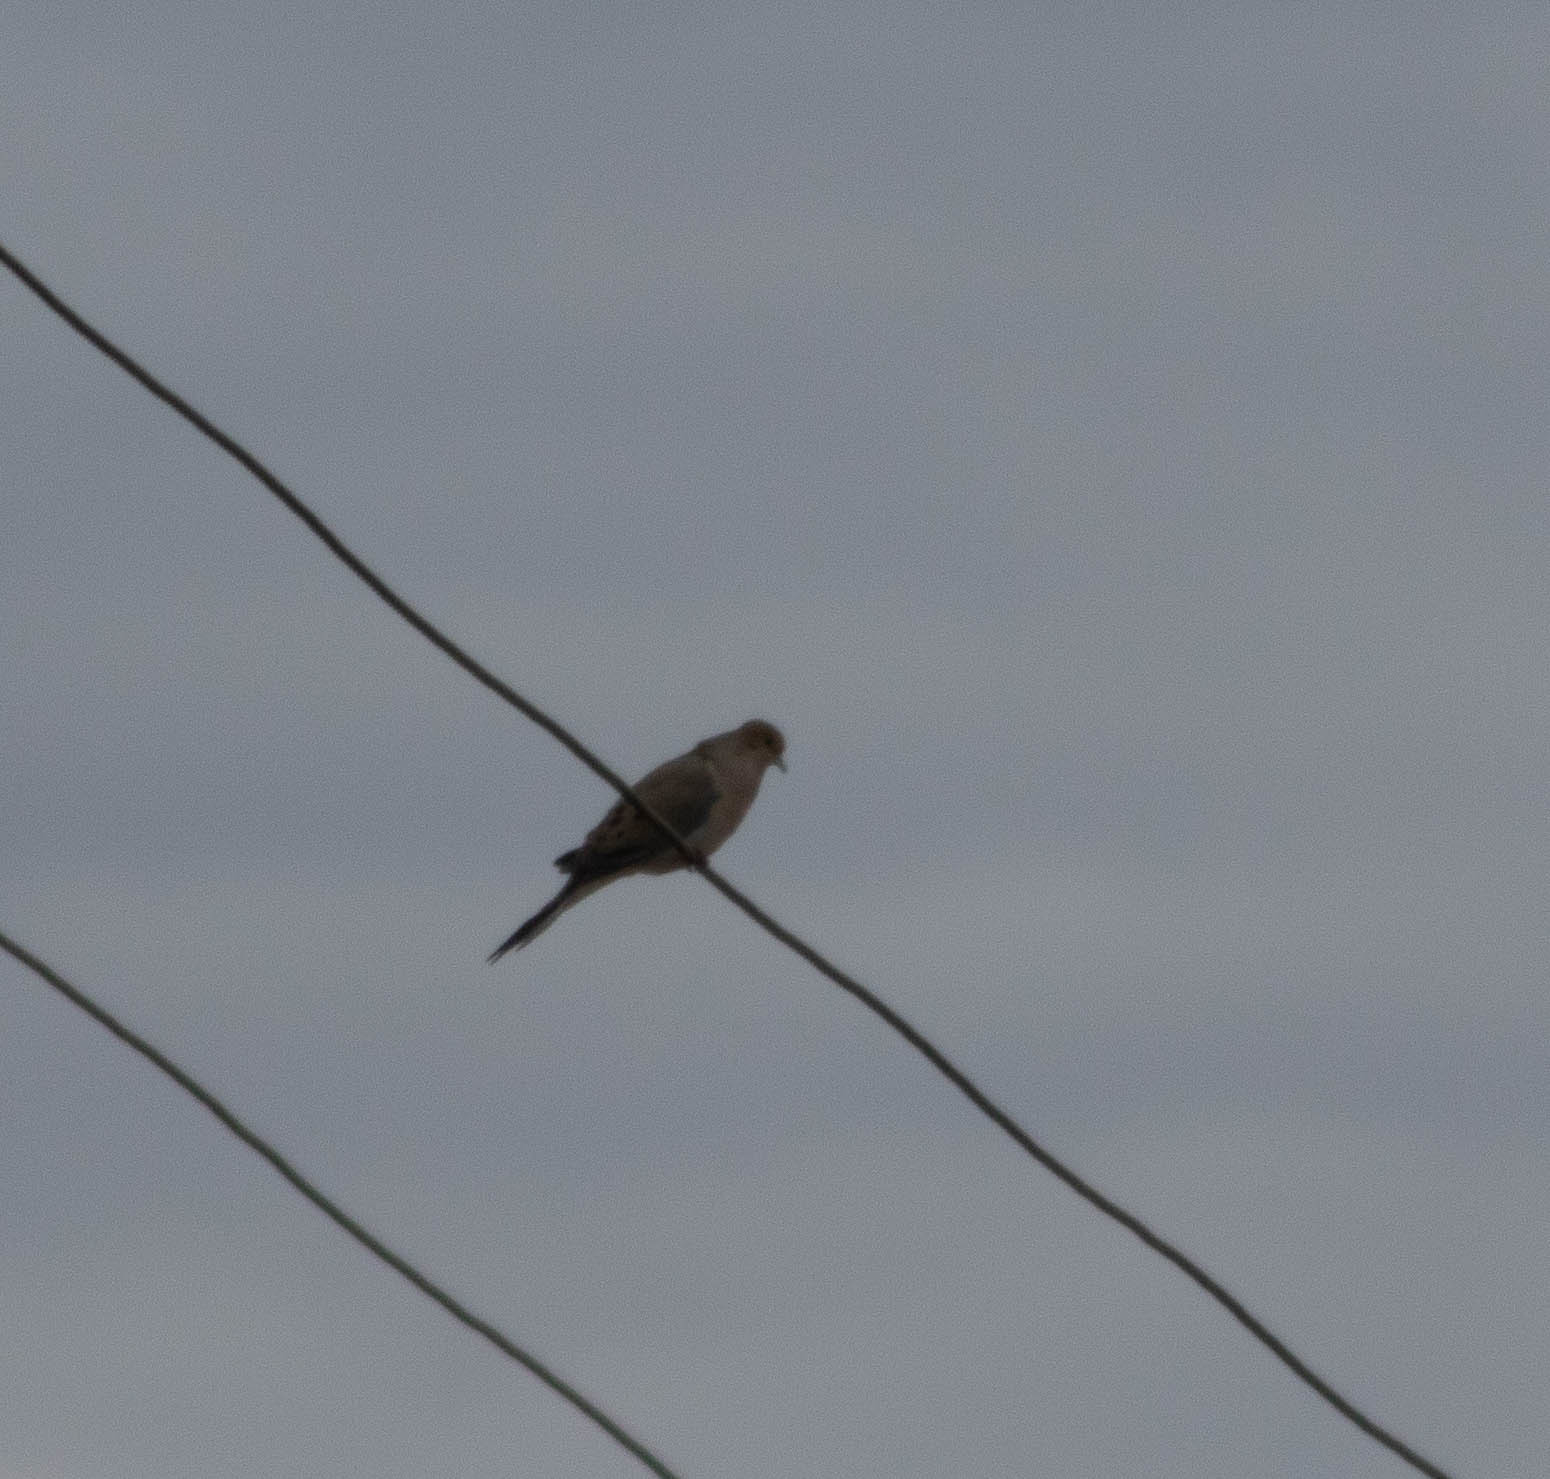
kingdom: Animalia
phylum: Chordata
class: Aves
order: Columbiformes
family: Columbidae
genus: Zenaida
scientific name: Zenaida macroura
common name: Mourning dove
